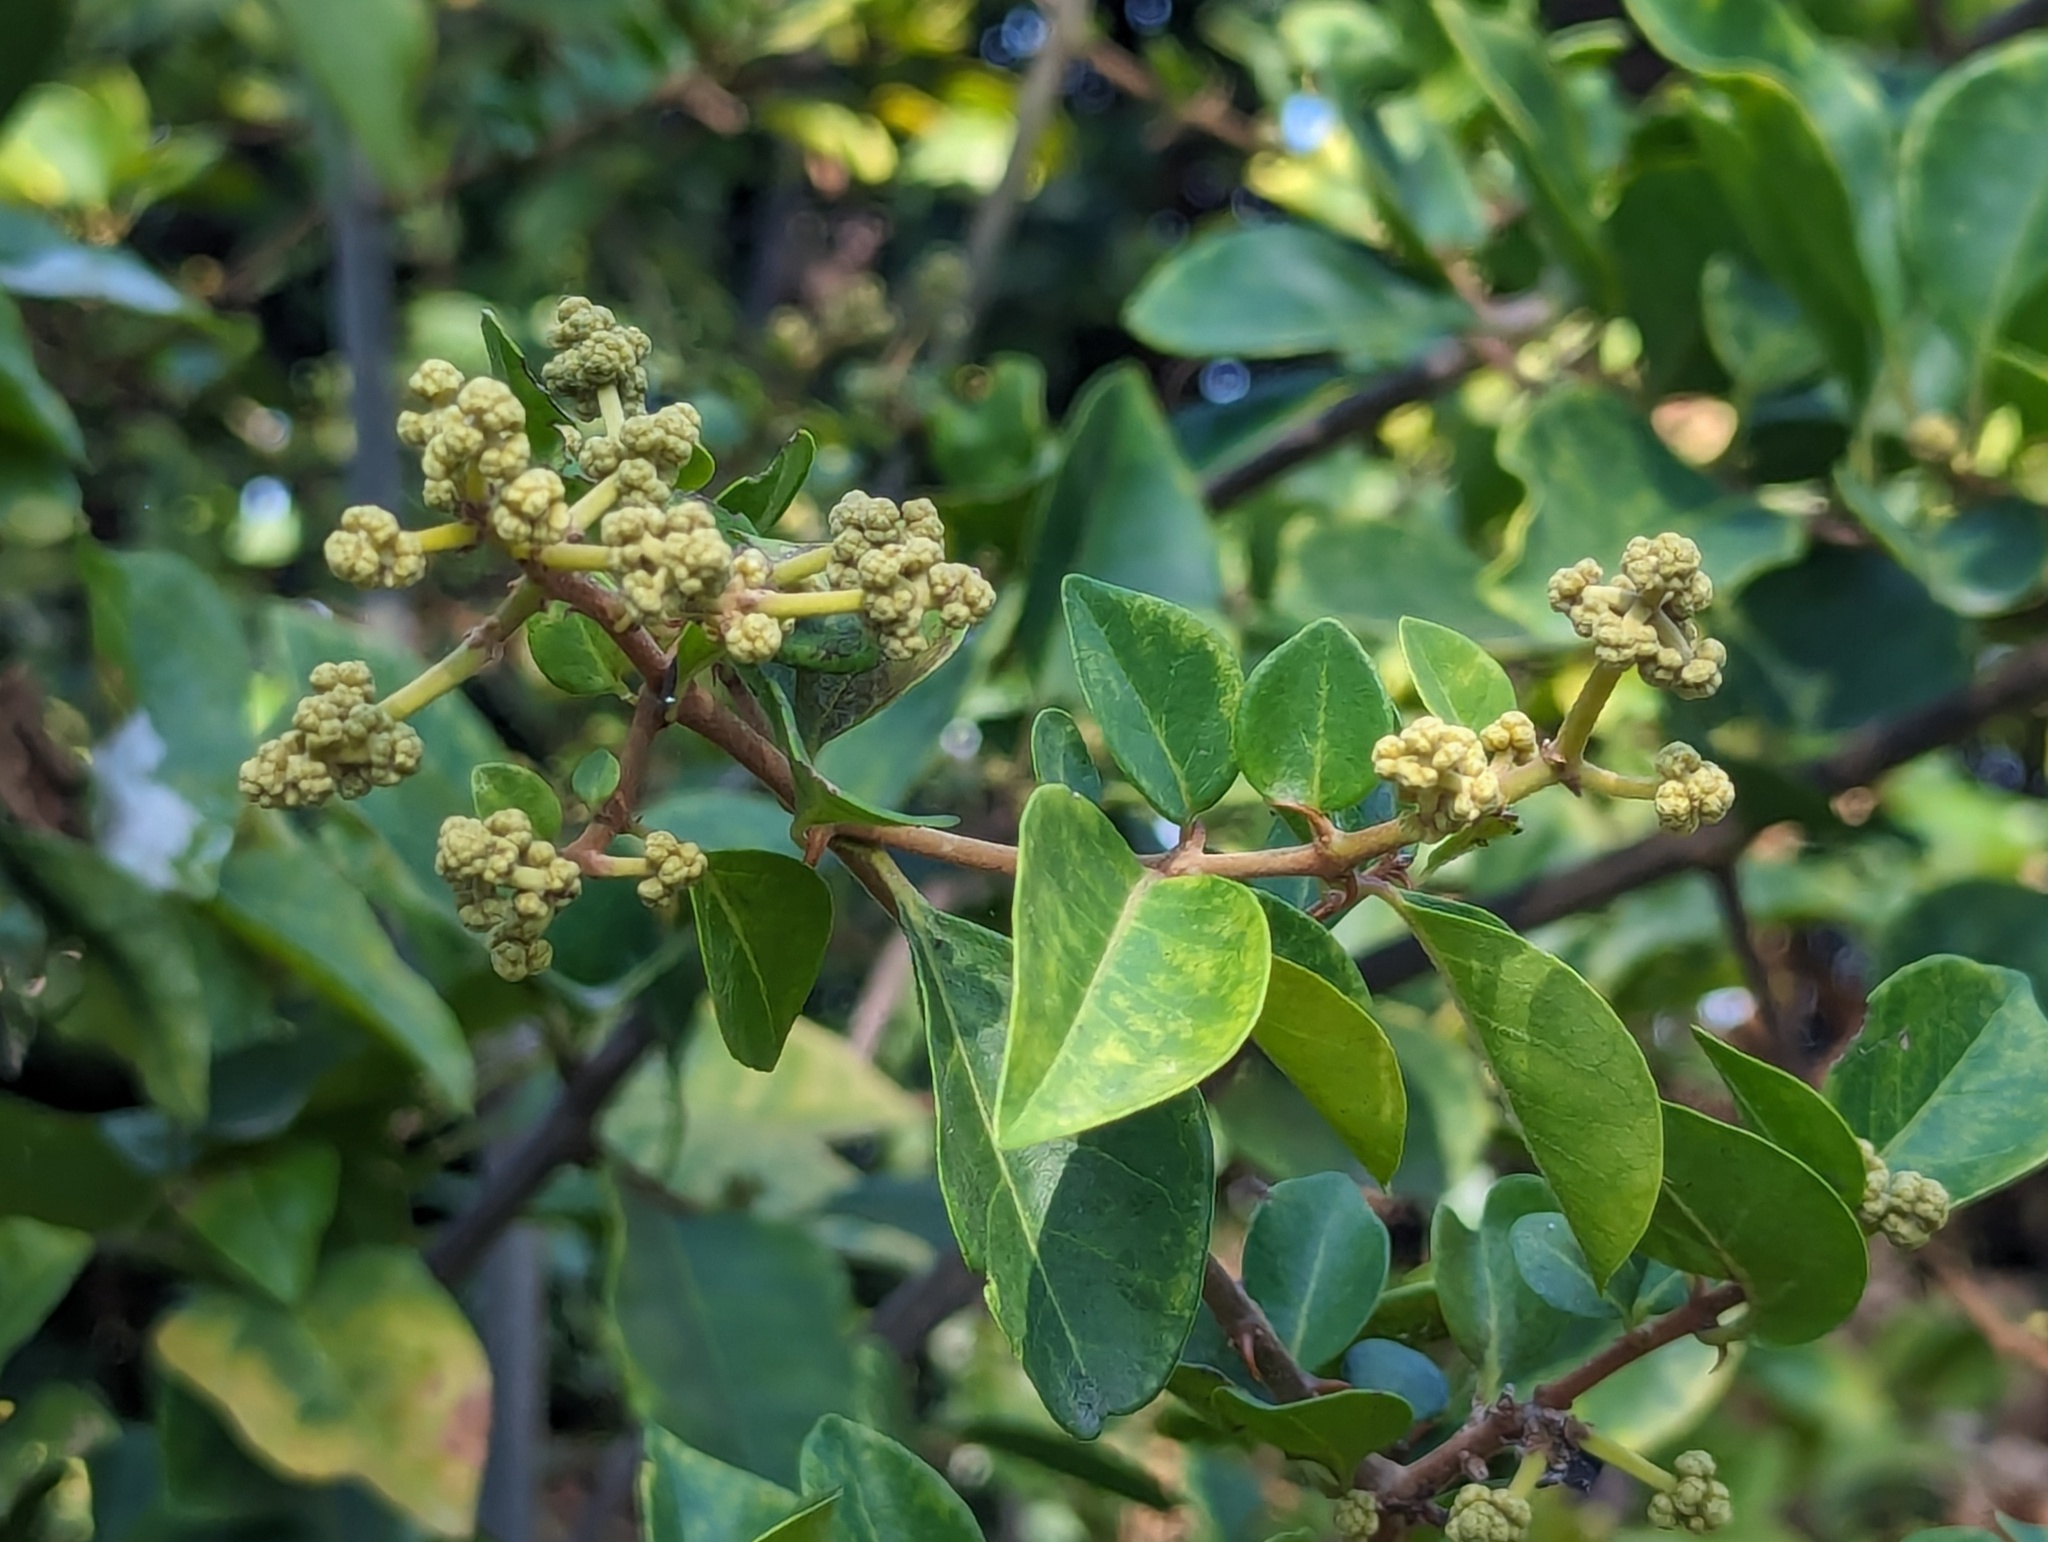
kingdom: Plantae
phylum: Tracheophyta
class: Magnoliopsida
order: Caryophyllales
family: Nyctaginaceae
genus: Pisonia
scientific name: Pisonia aculeata
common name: Cockspur vine
